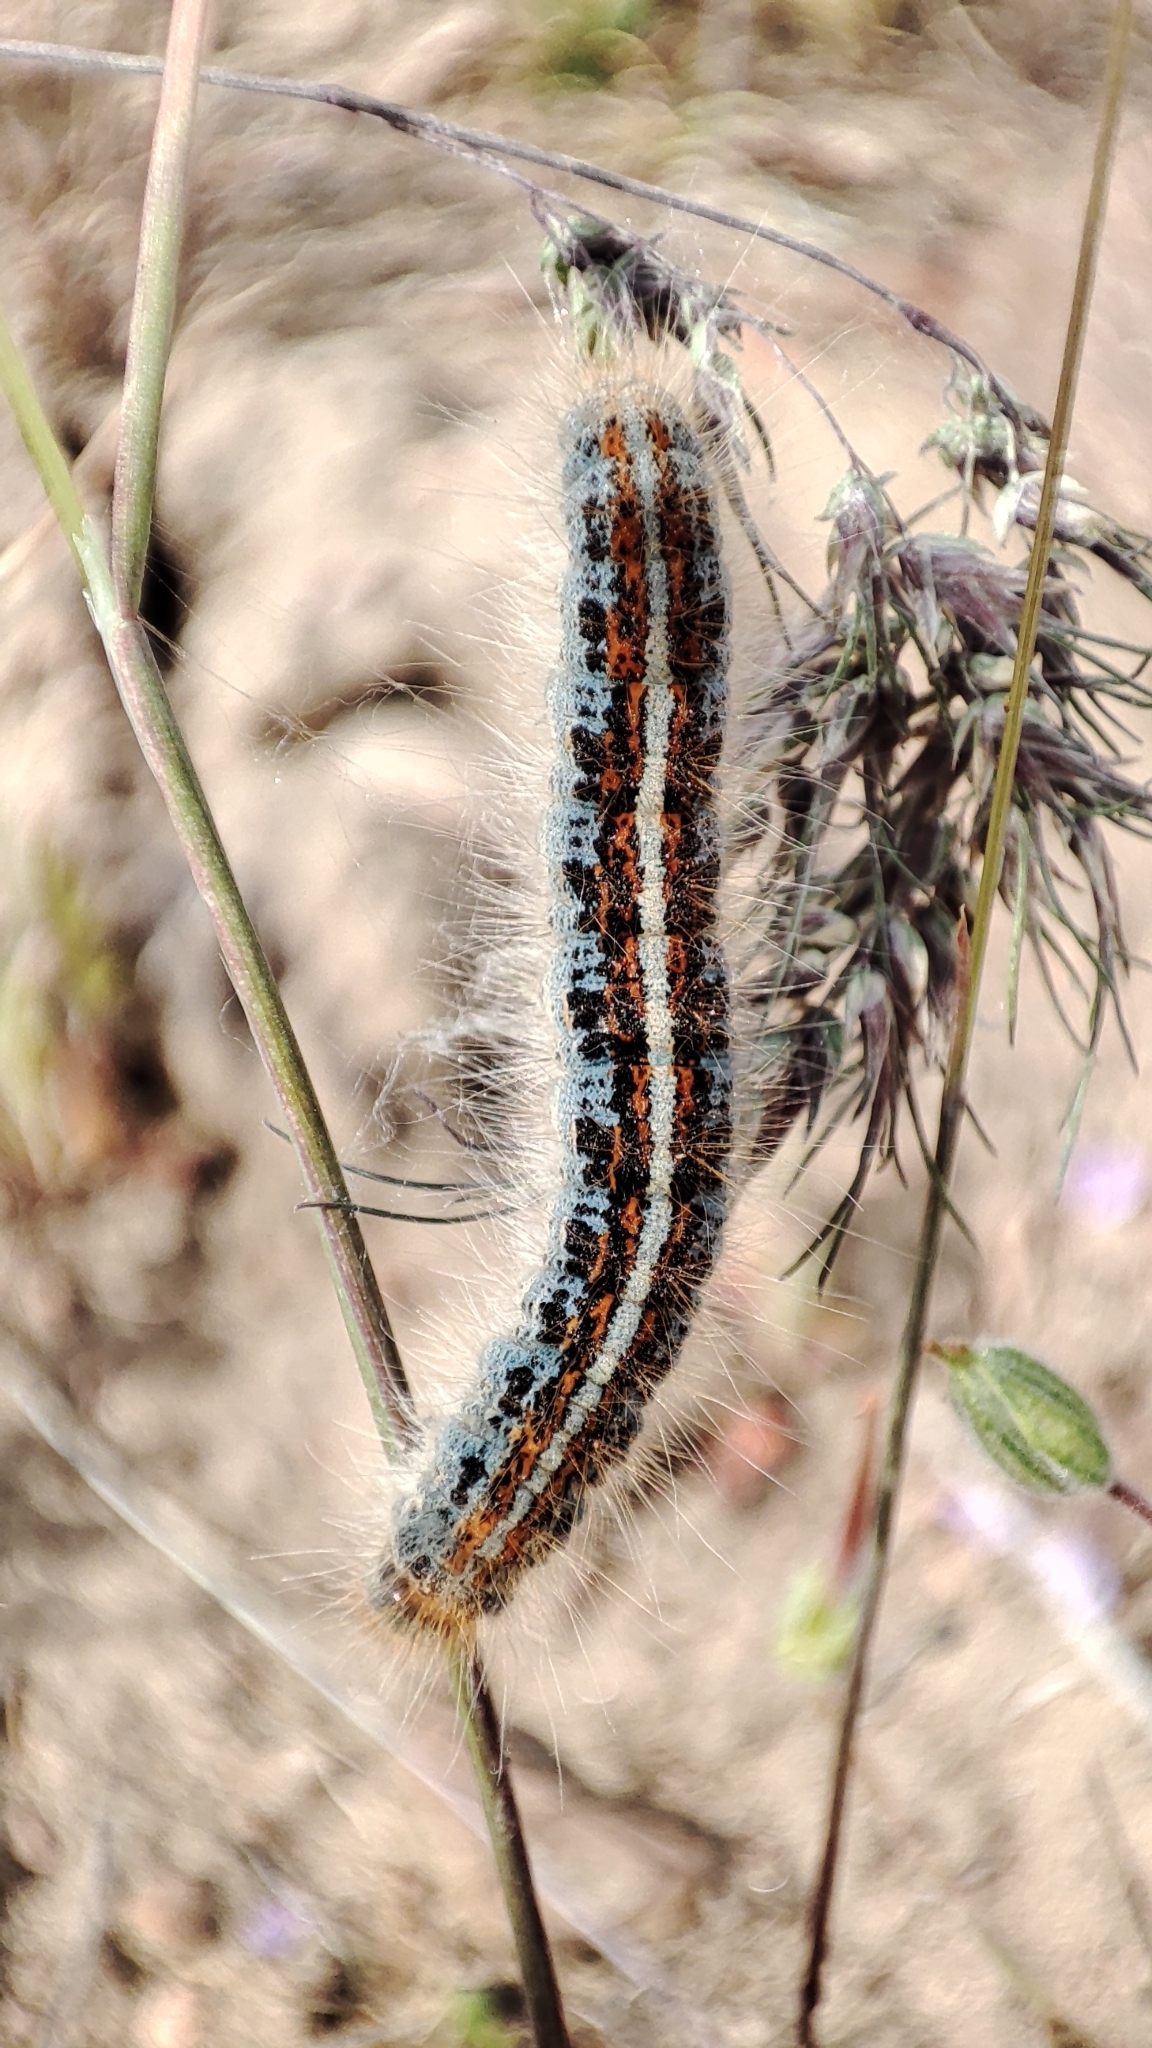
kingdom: Animalia
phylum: Arthropoda
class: Insecta
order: Lepidoptera
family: Lasiocampidae
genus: Malacosoma
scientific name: Malacosoma castrense
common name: Ground lackey
